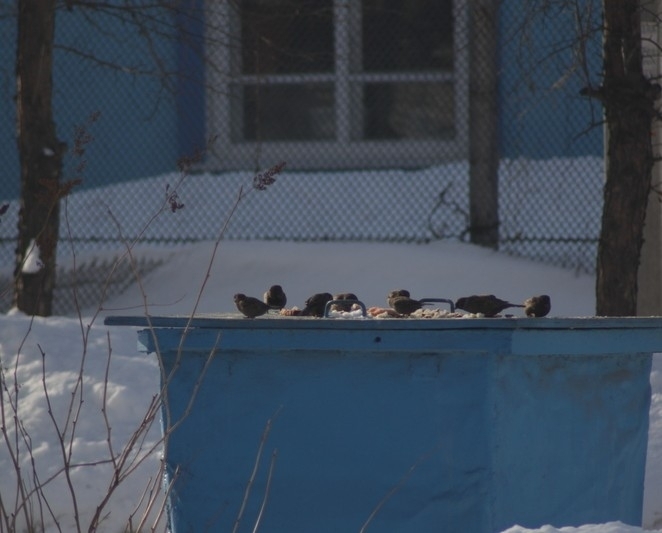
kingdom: Animalia
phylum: Chordata
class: Aves
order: Passeriformes
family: Passeridae
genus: Passer
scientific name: Passer montanus
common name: Eurasian tree sparrow
